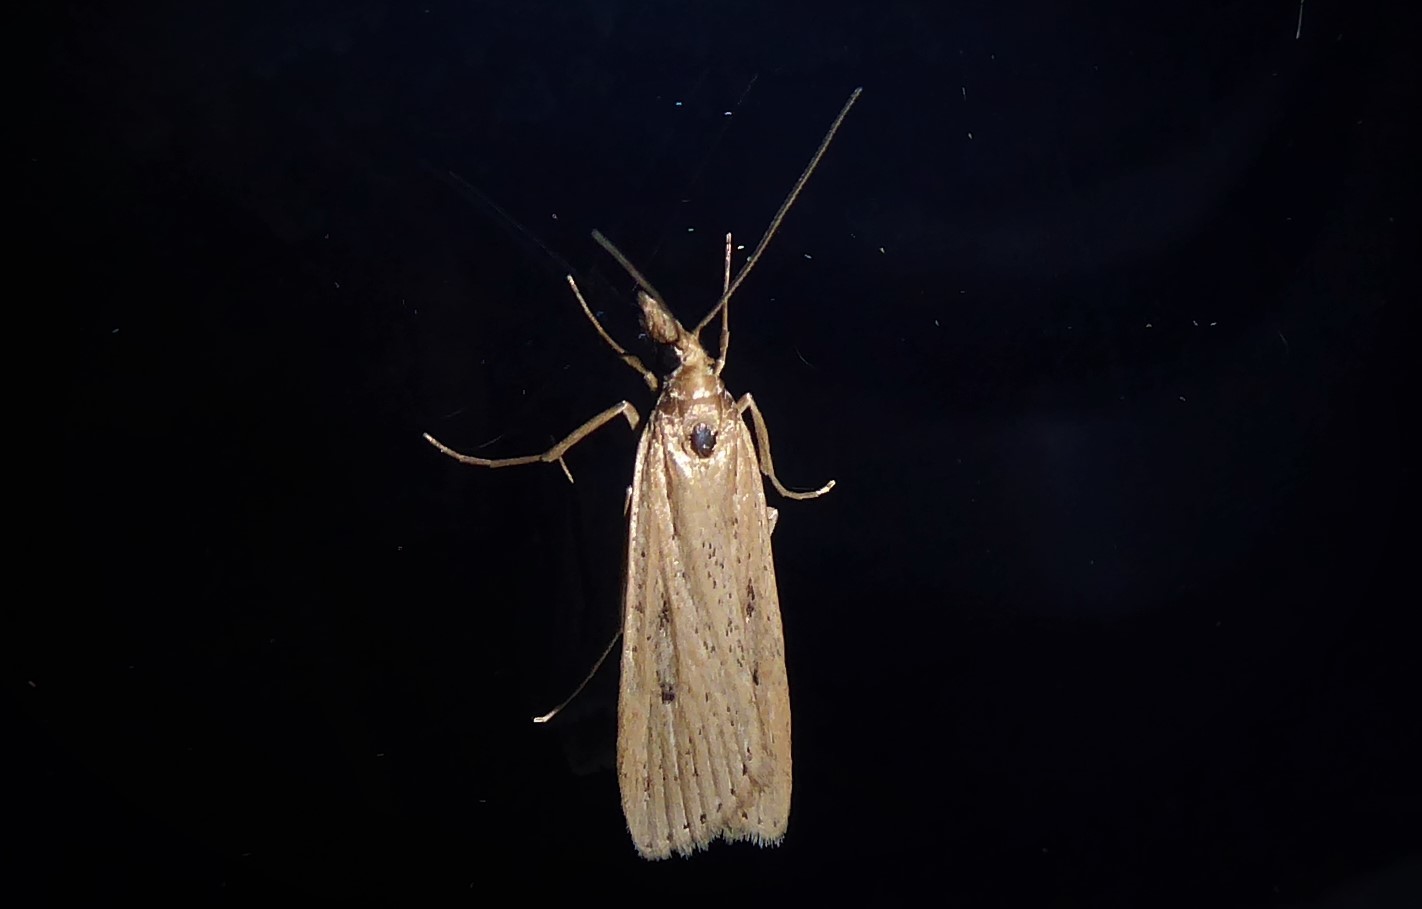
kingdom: Animalia
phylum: Arthropoda
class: Insecta
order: Lepidoptera
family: Crambidae
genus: Eudonia
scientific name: Eudonia sabulosella
